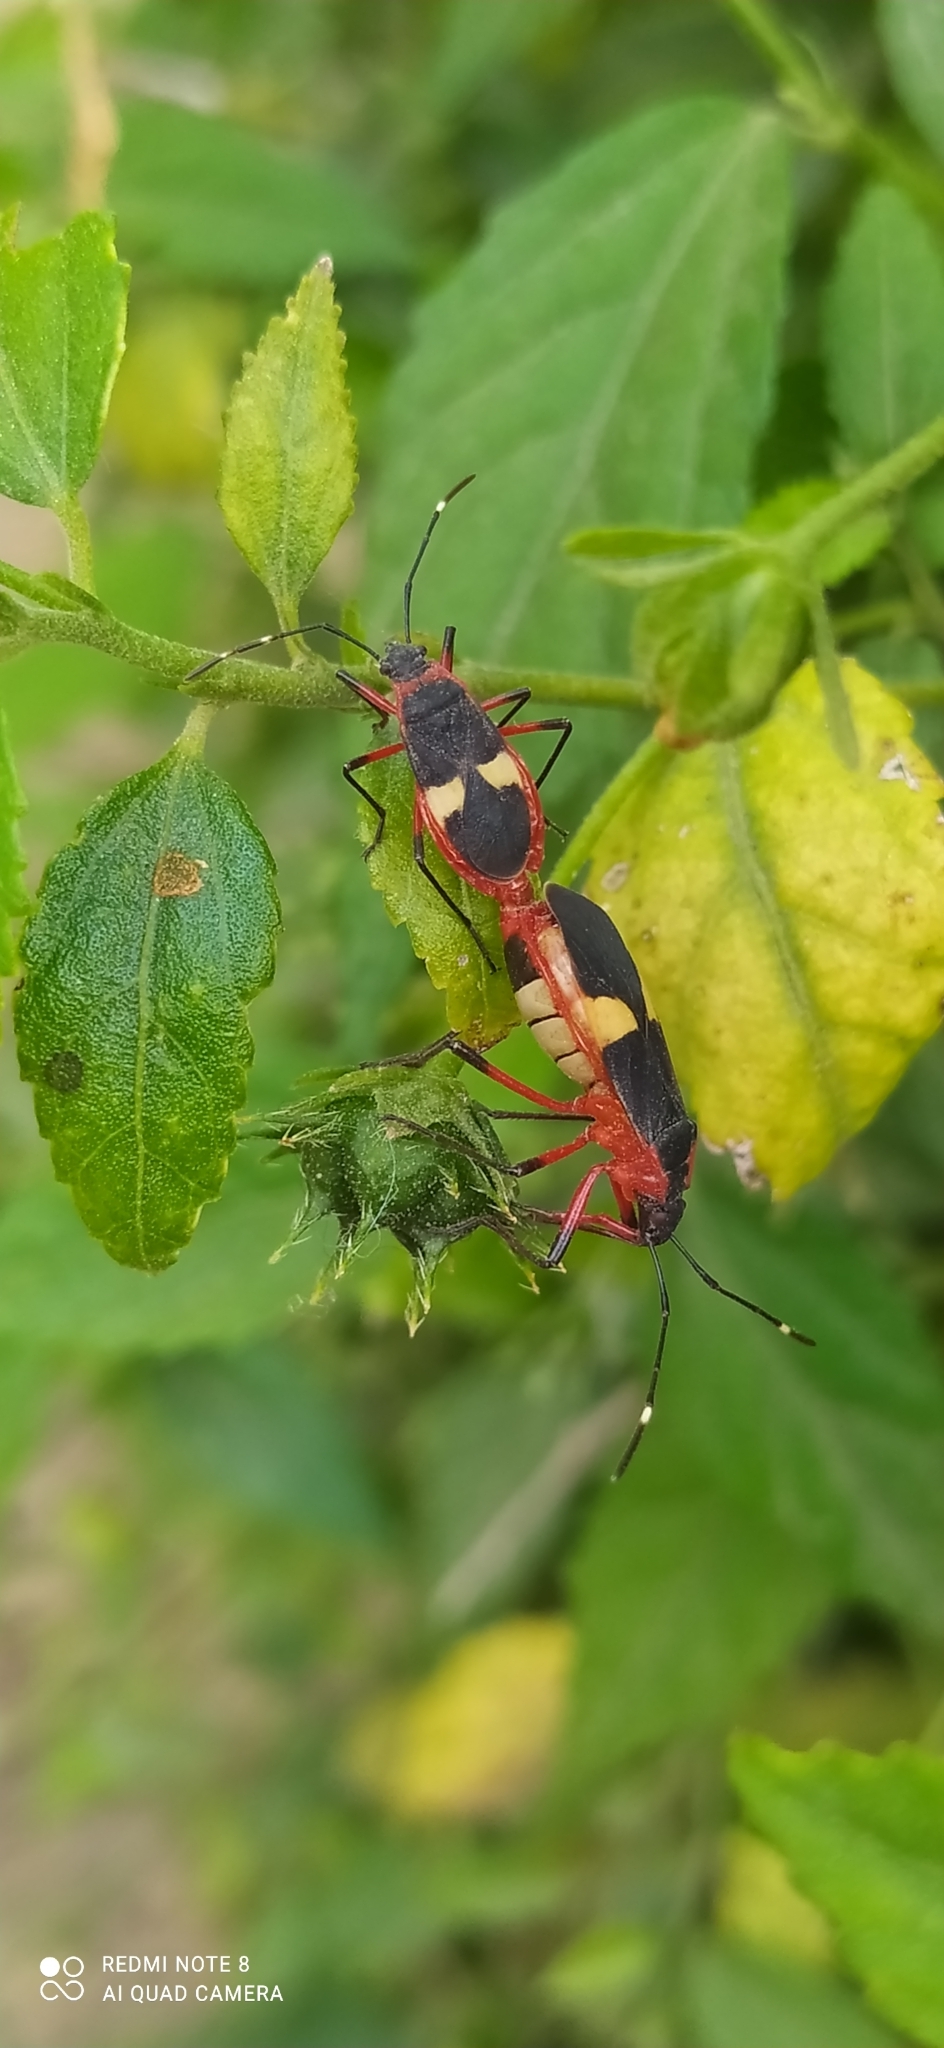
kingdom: Animalia
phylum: Arthropoda
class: Insecta
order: Hemiptera
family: Pyrrhocoridae
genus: Dysdercus
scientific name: Dysdercus albofasciatus
